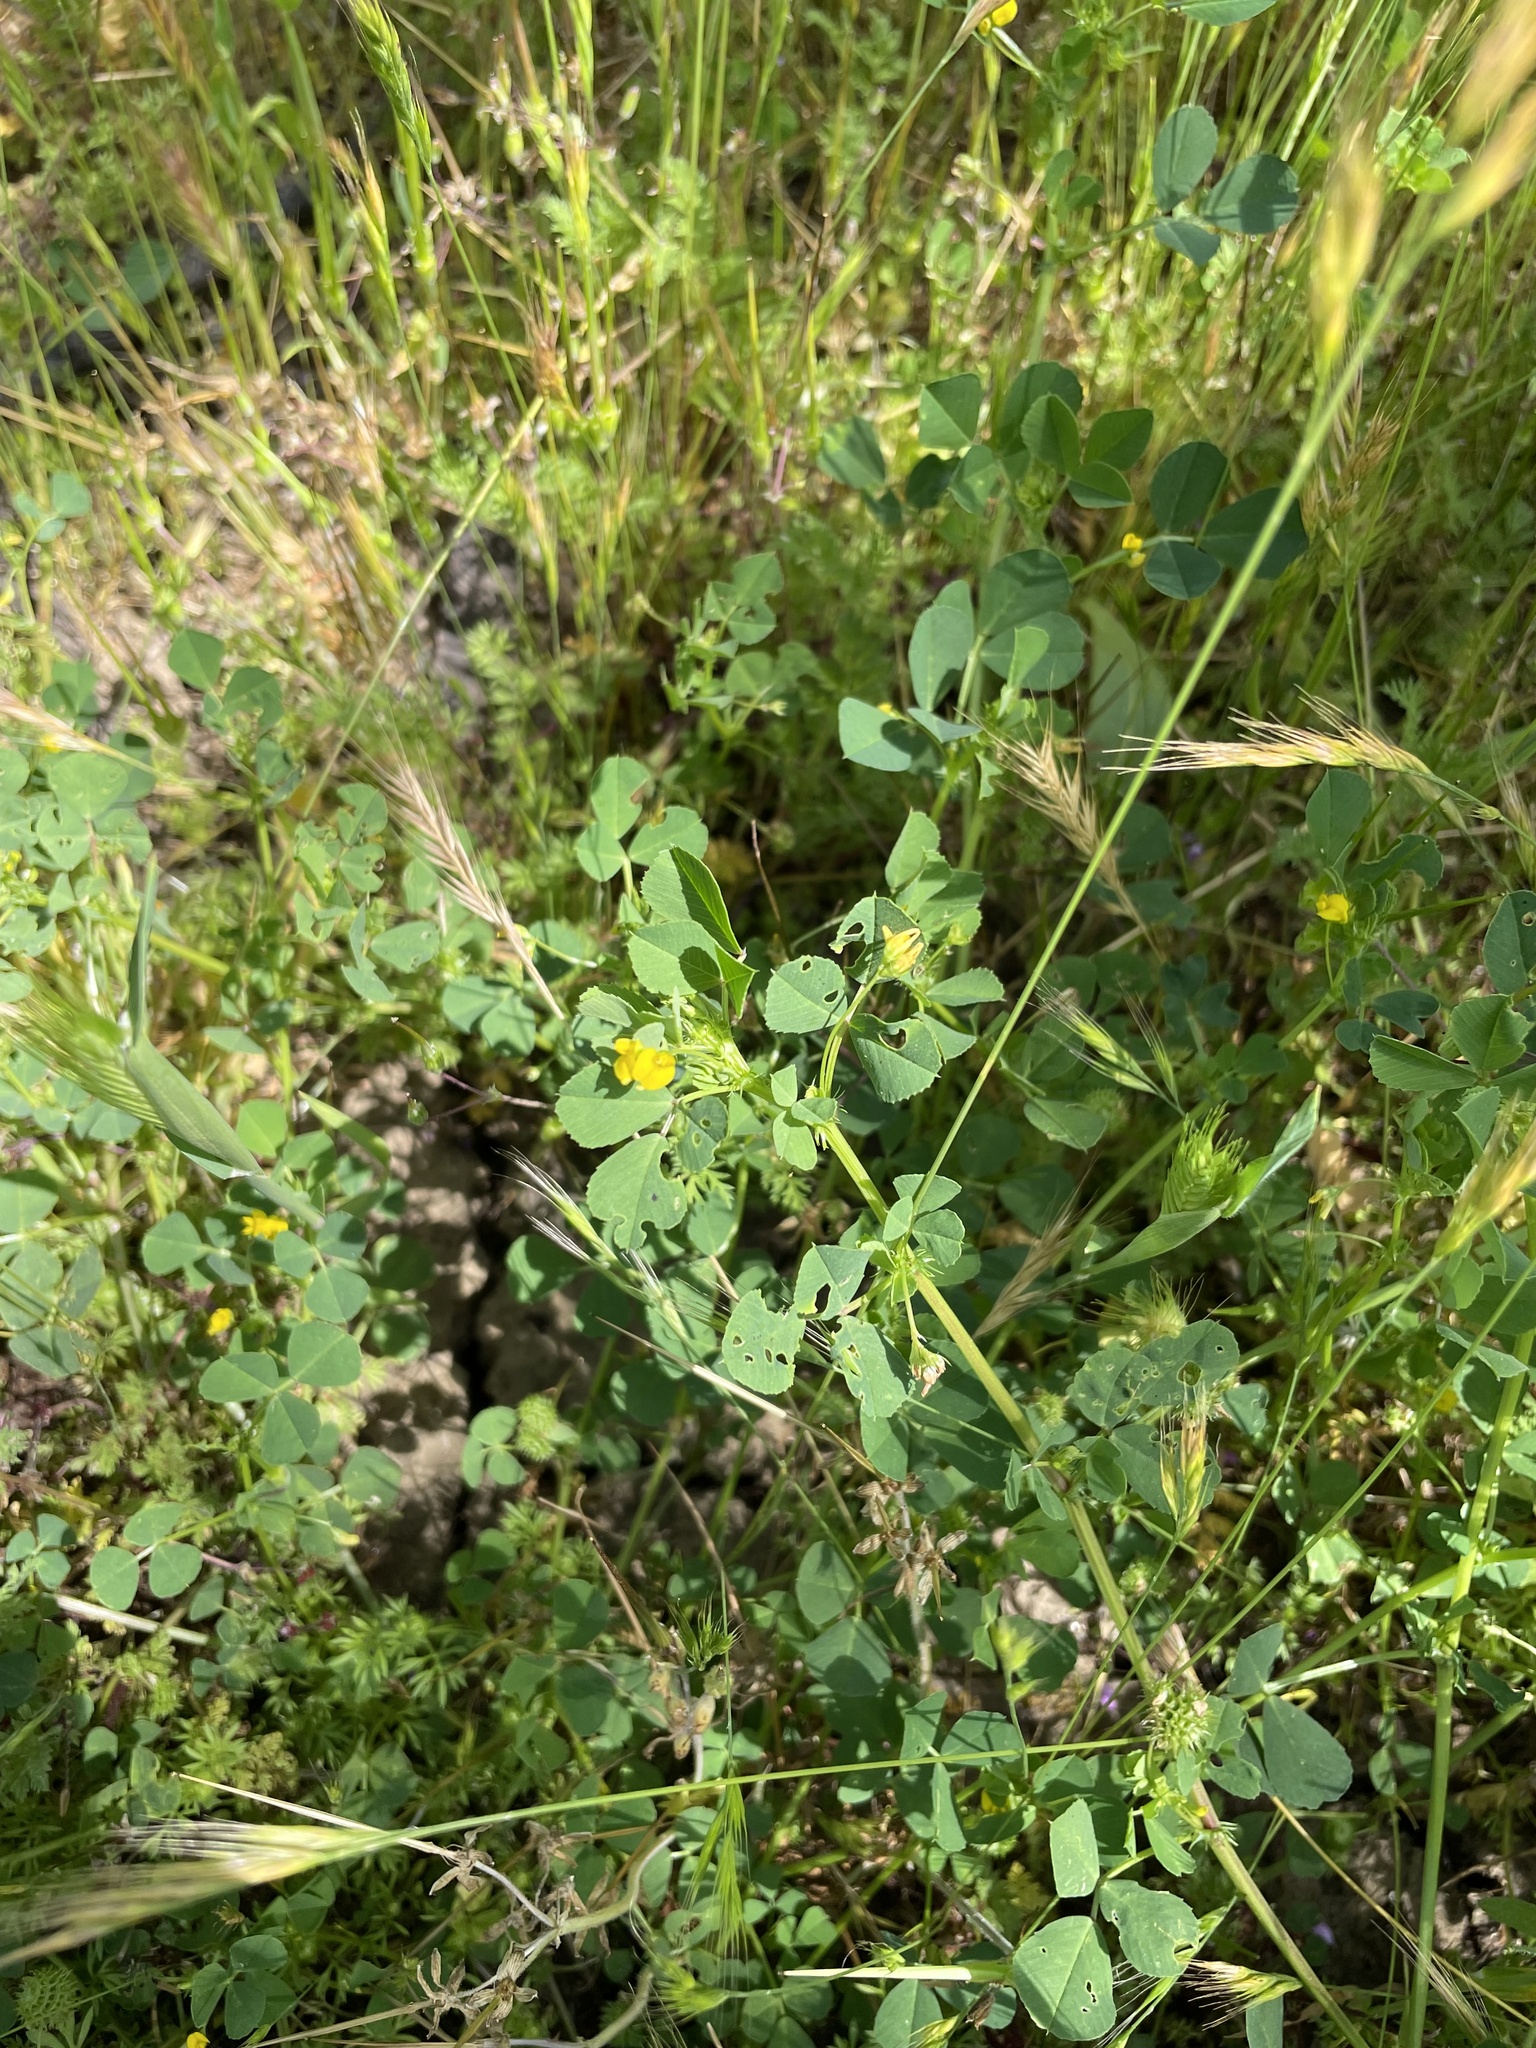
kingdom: Plantae
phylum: Tracheophyta
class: Magnoliopsida
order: Fabales
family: Fabaceae
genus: Medicago
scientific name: Medicago polymorpha
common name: Burclover
